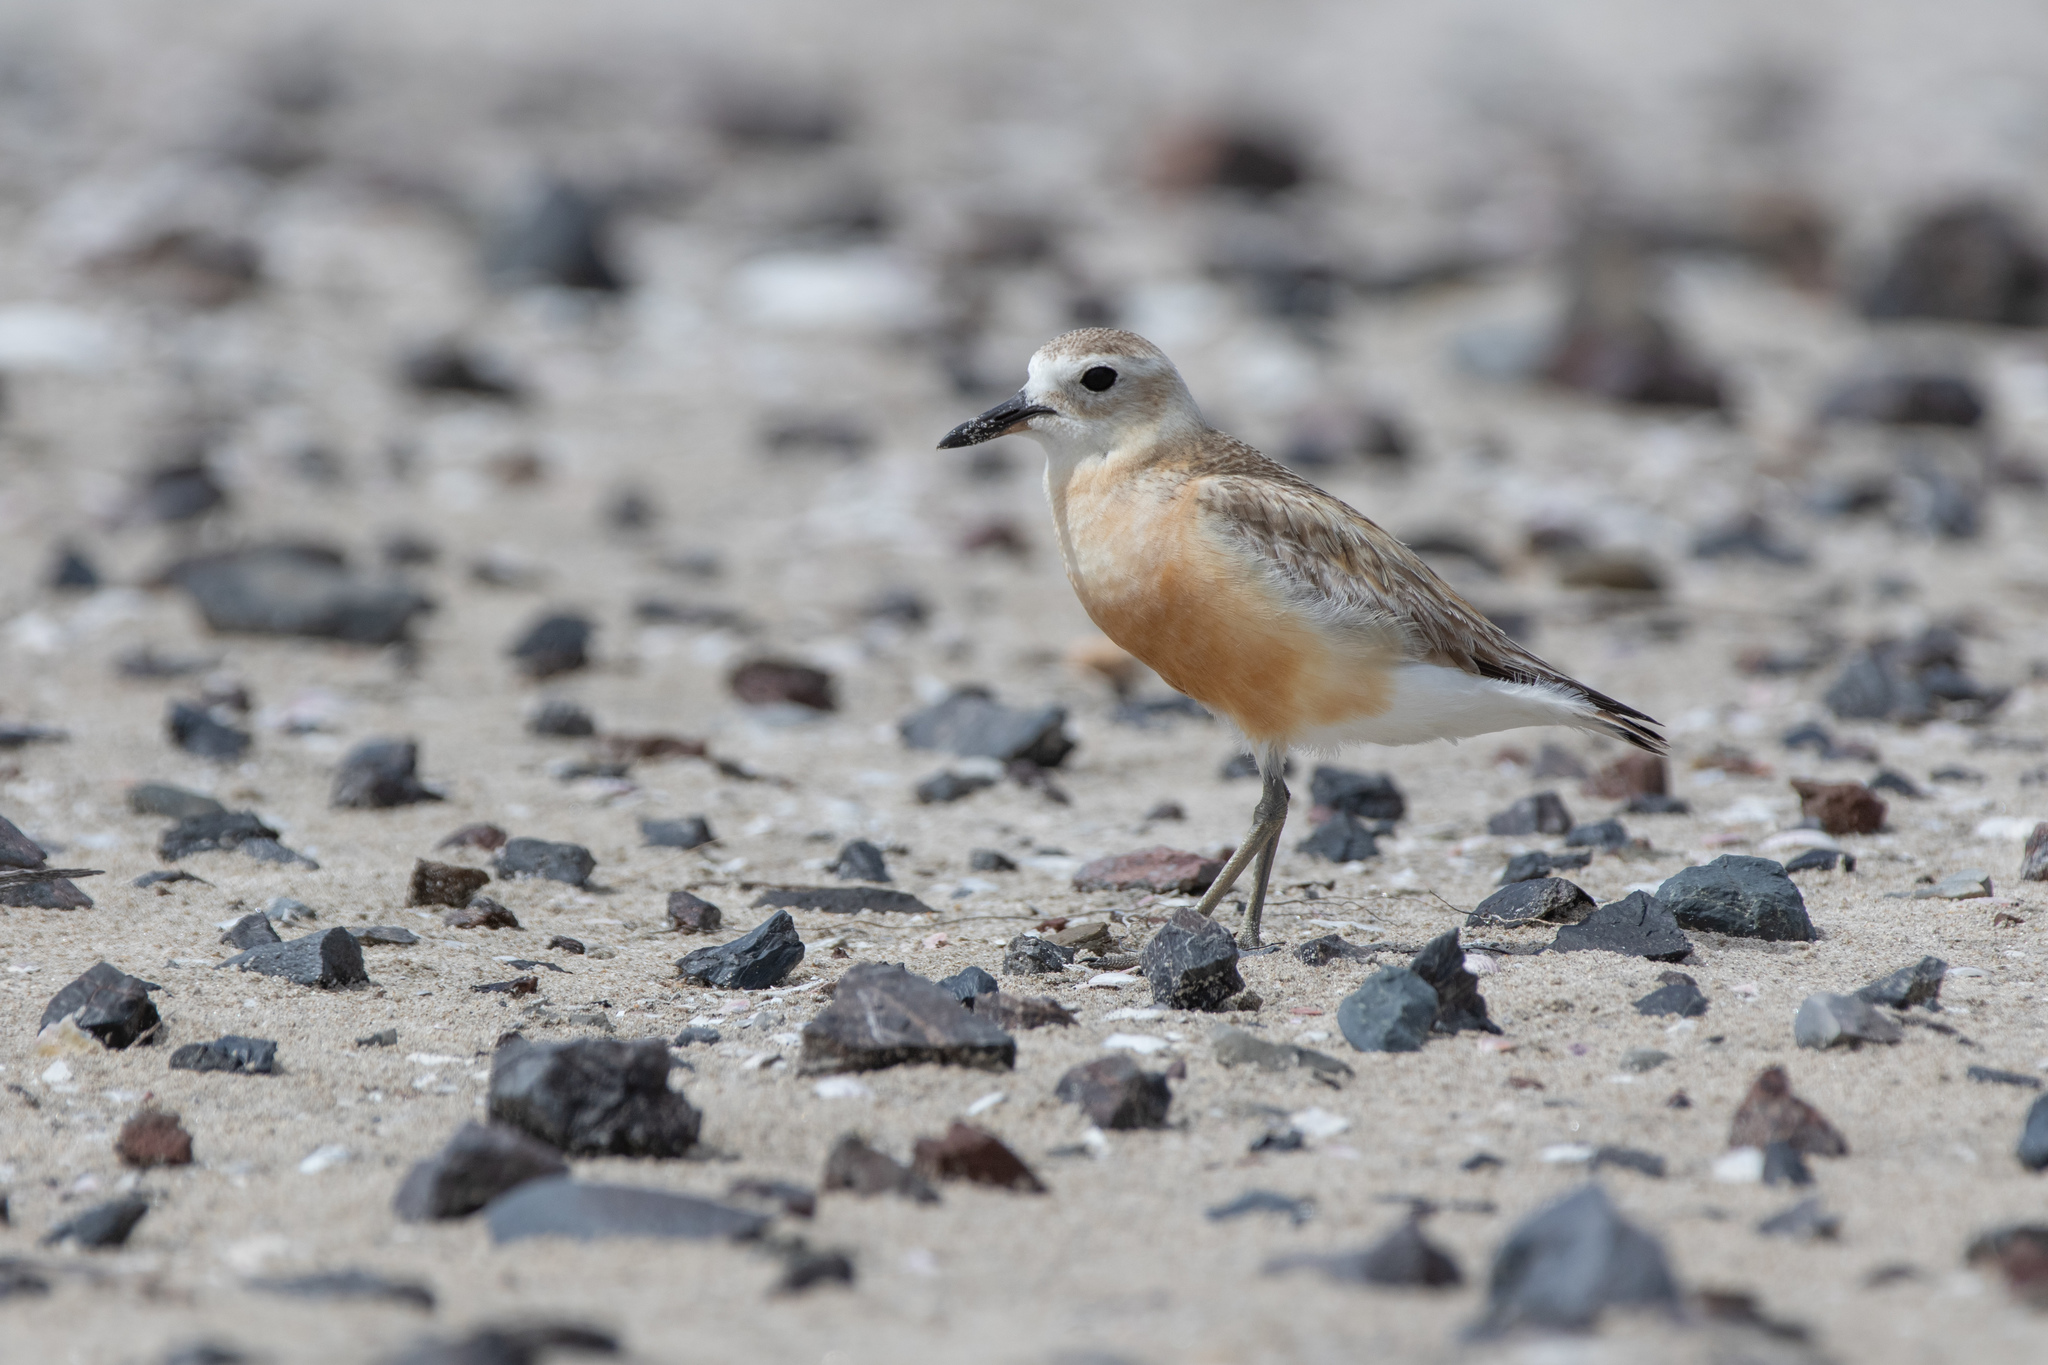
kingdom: Animalia
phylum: Chordata
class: Aves
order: Charadriiformes
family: Charadriidae
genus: Anarhynchus
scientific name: Anarhynchus
